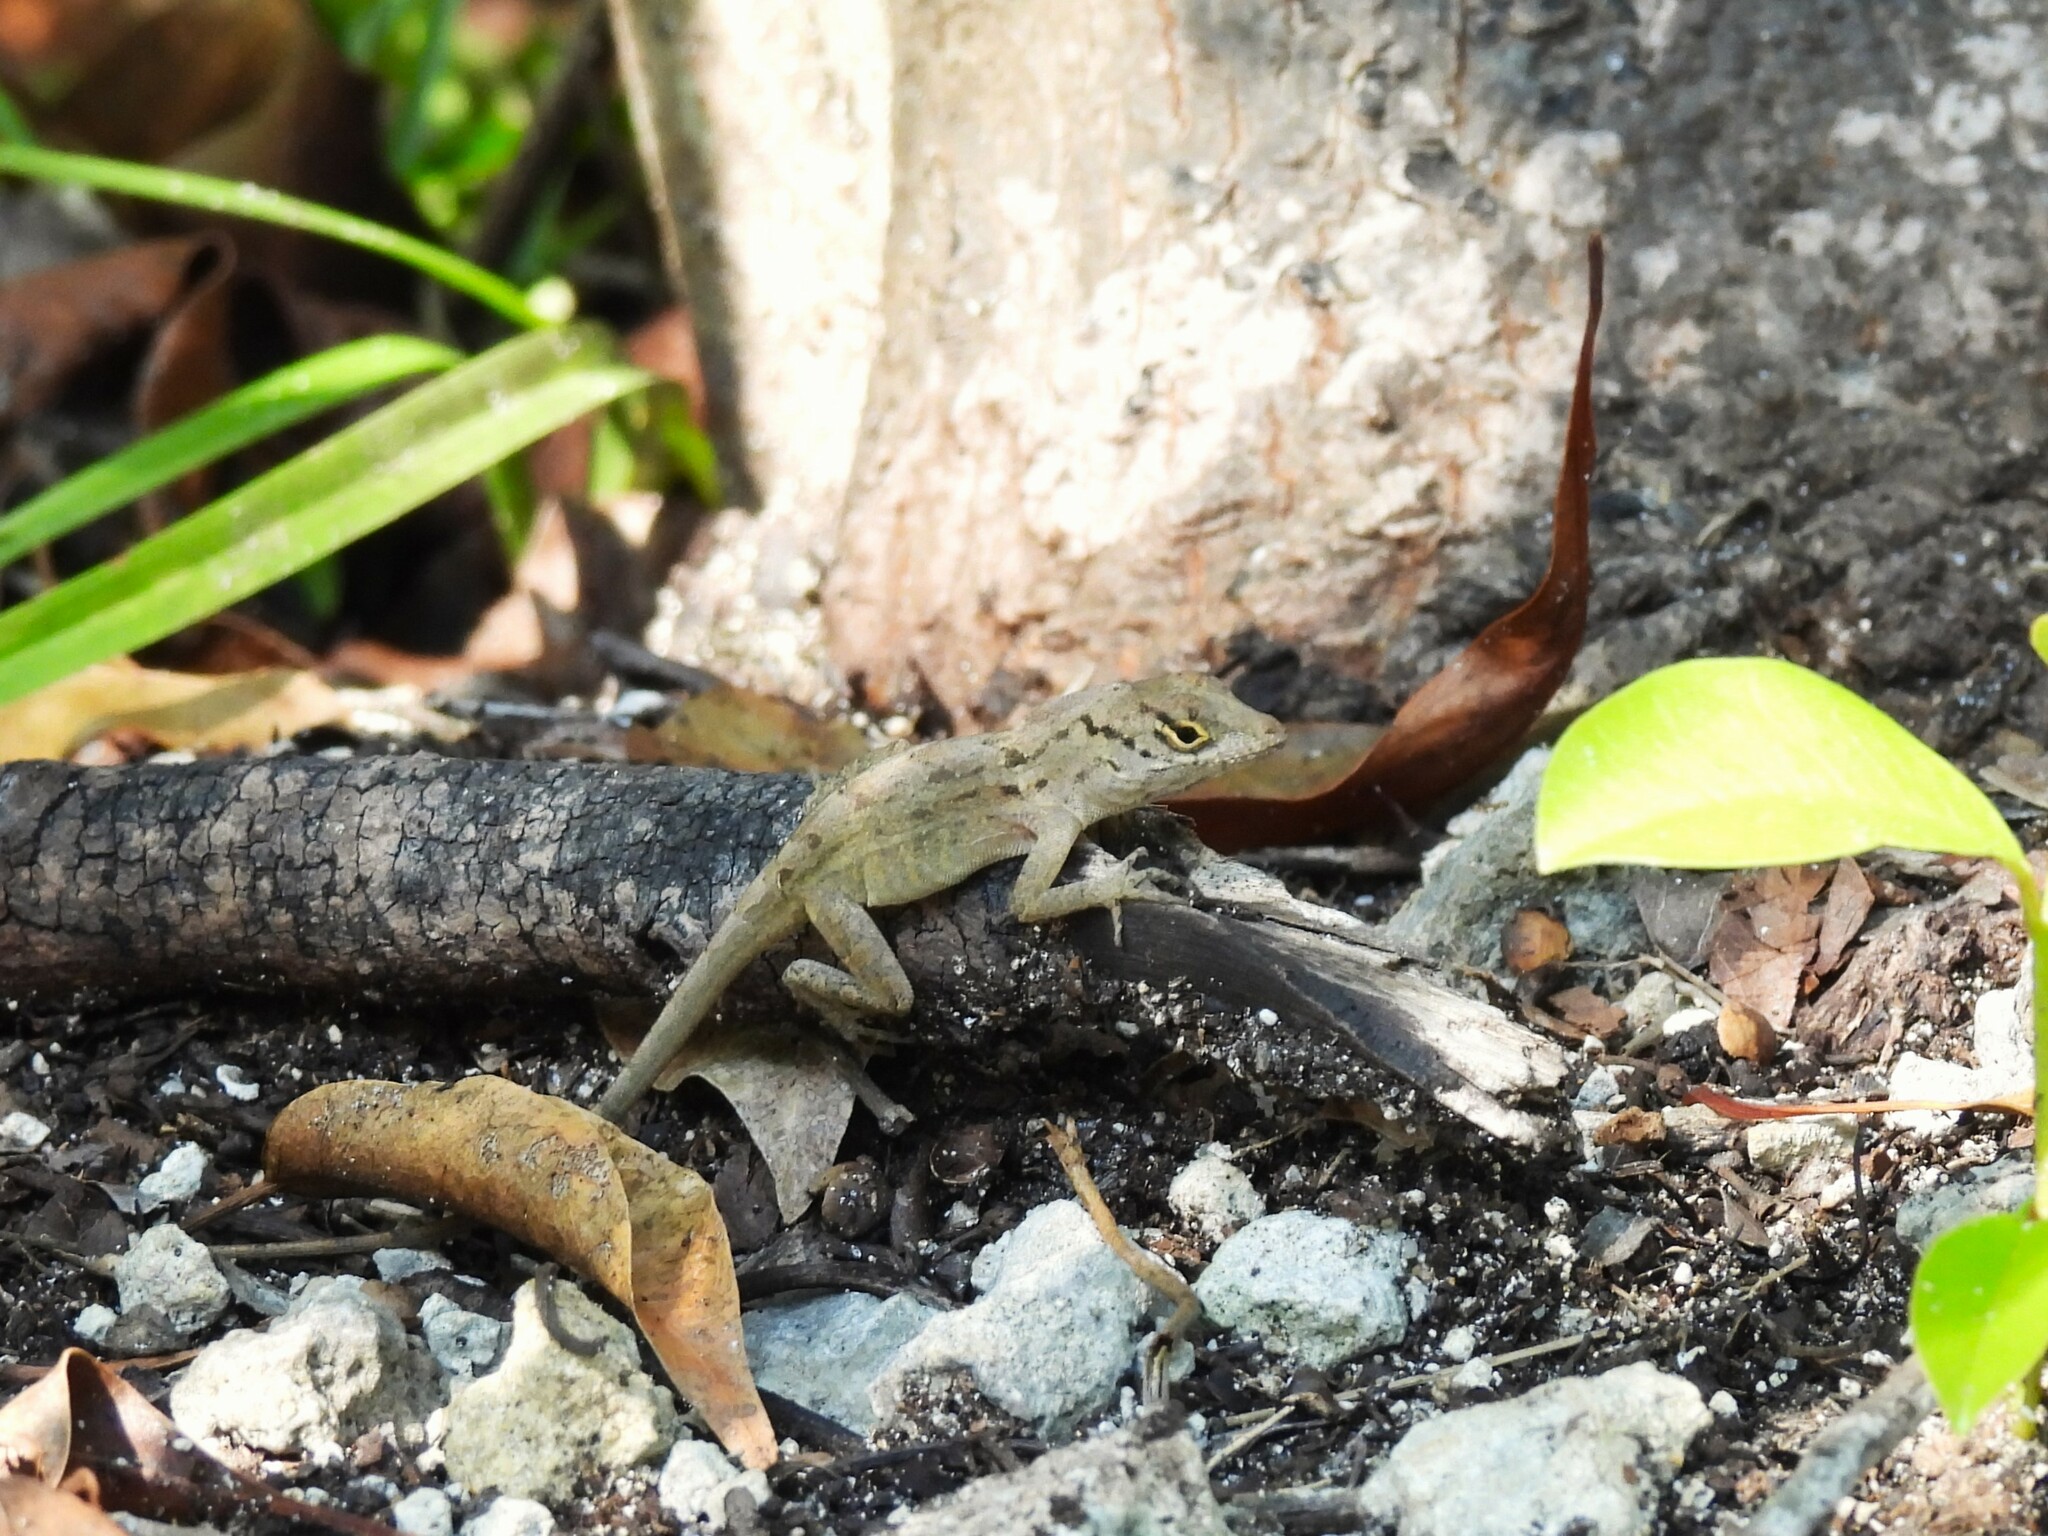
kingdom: Animalia
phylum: Chordata
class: Squamata
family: Dactyloidae
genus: Anolis
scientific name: Anolis sagrei
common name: Brown anole
